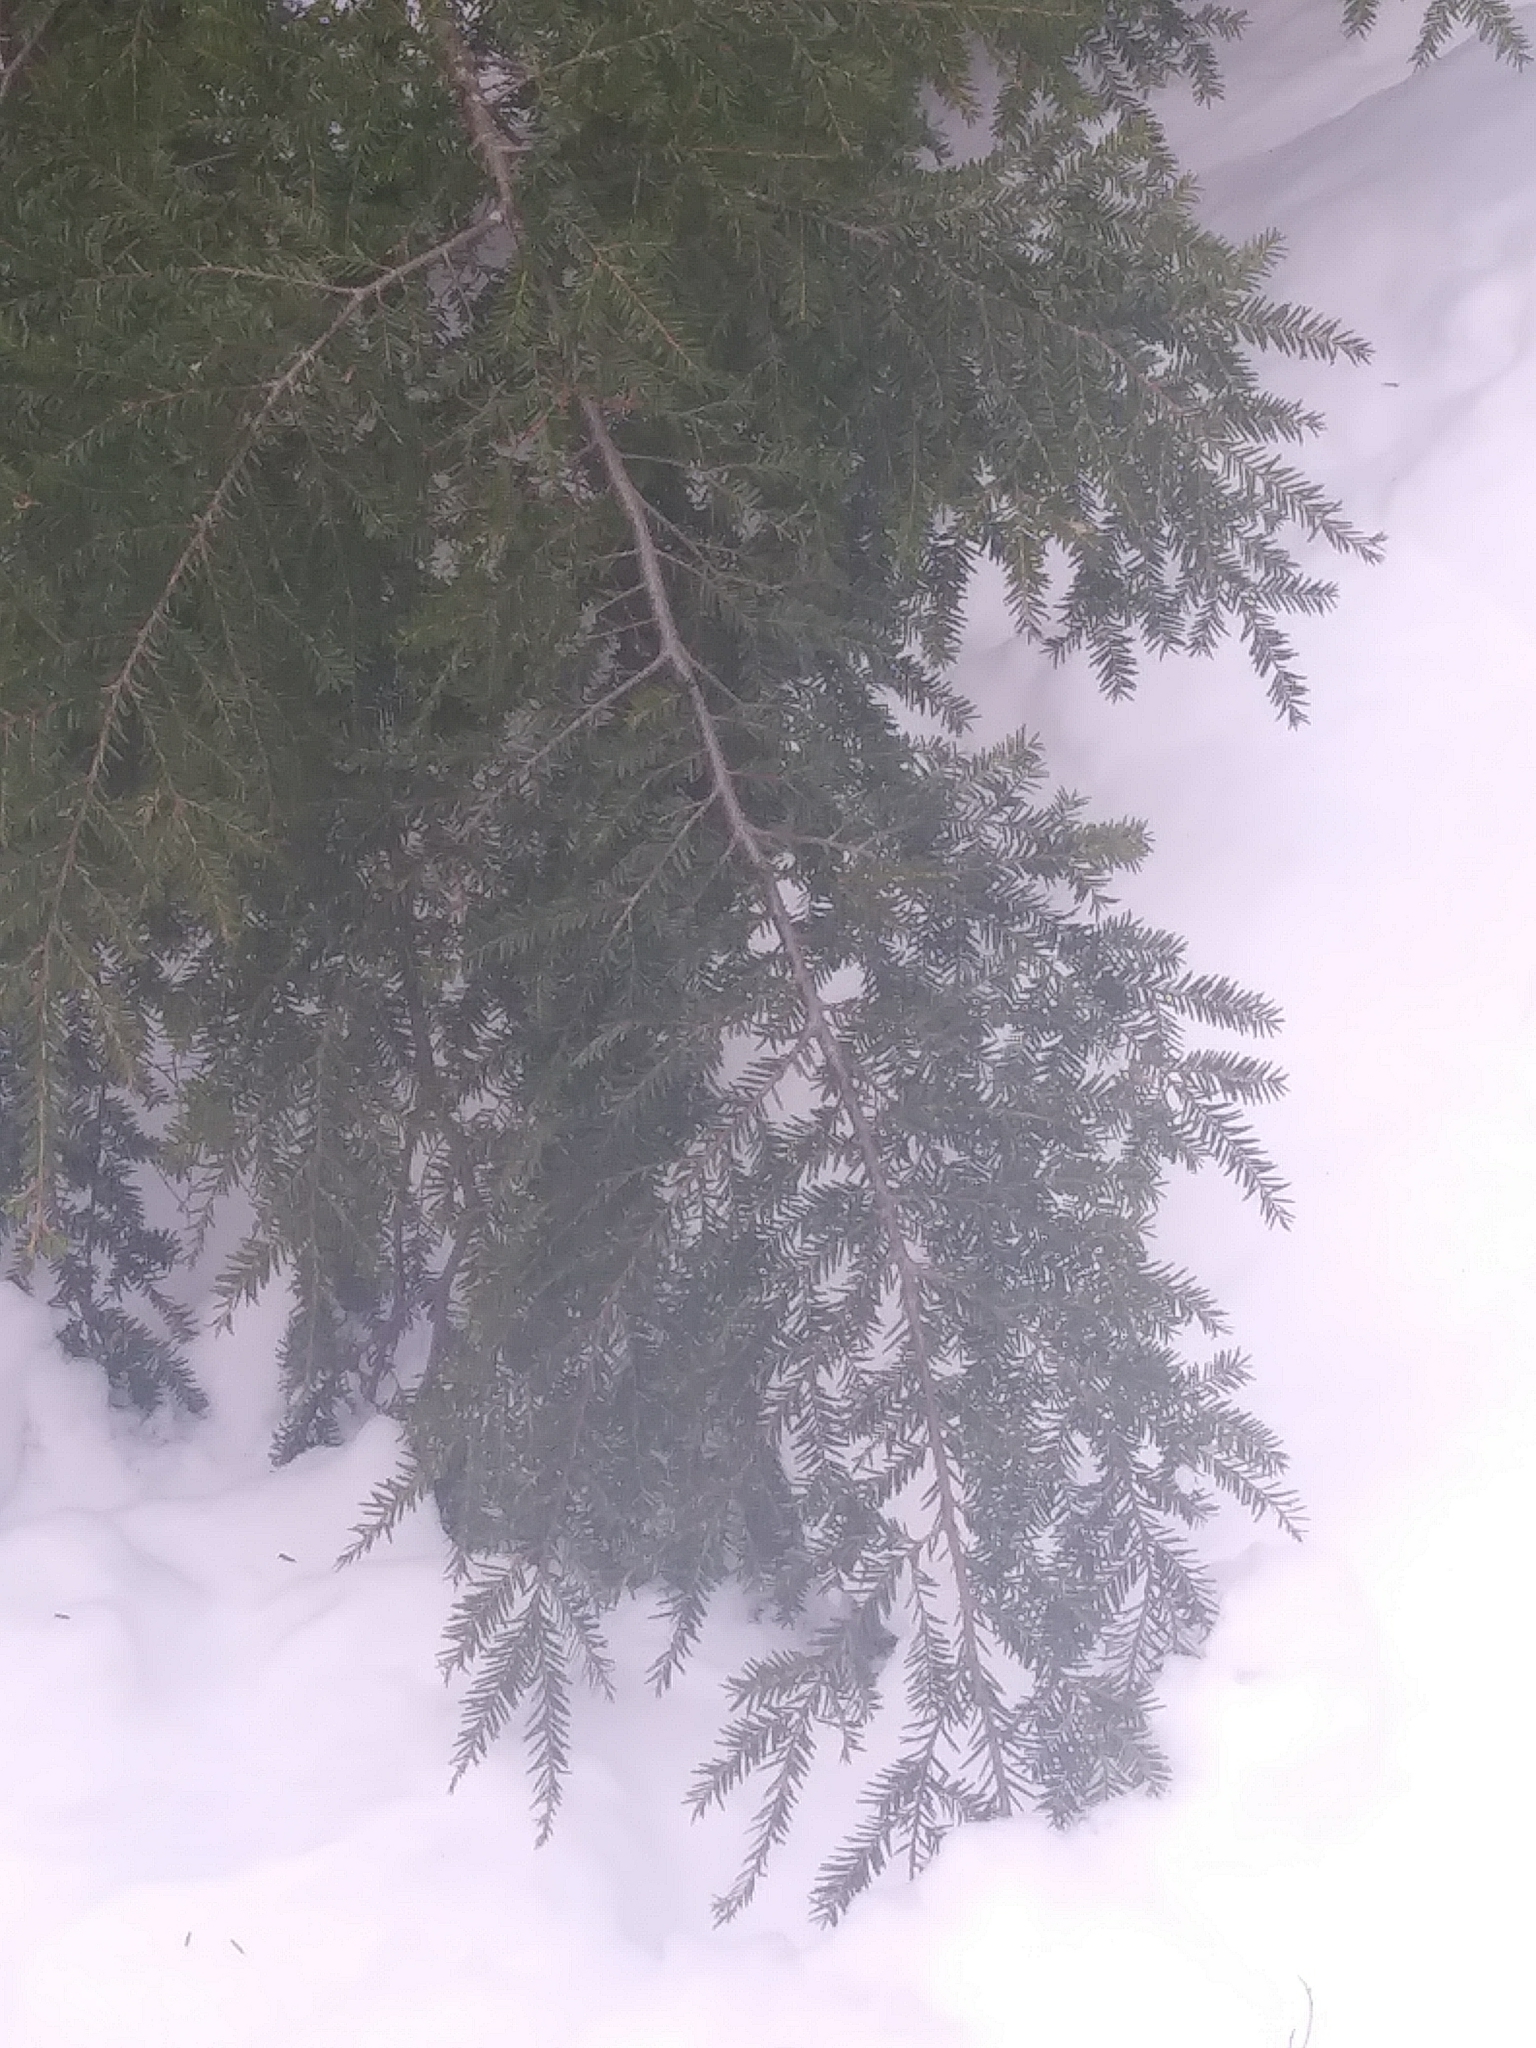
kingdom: Plantae
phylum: Tracheophyta
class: Pinopsida
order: Pinales
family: Pinaceae
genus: Tsuga
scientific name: Tsuga canadensis
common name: Eastern hemlock
